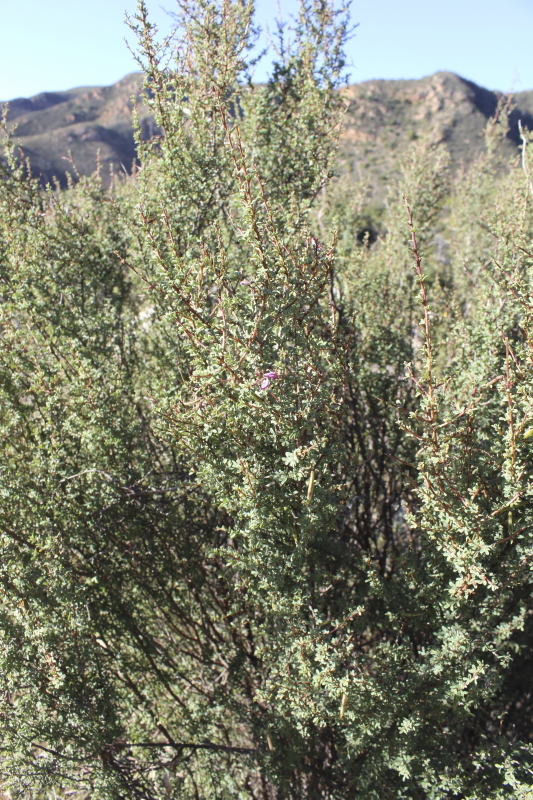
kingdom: Plantae
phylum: Tracheophyta
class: Magnoliopsida
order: Fabales
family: Fabaceae
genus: Indigofera
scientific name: Indigofera denudata
